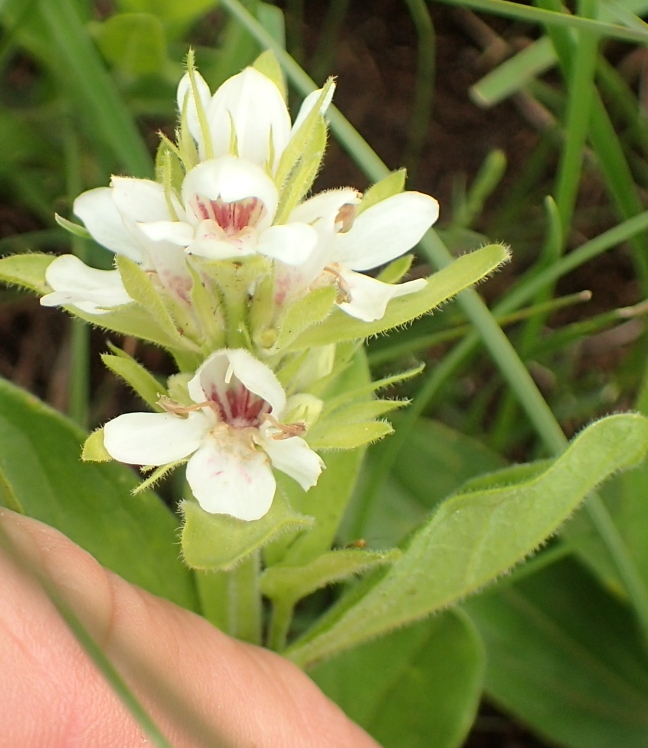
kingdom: Plantae
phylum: Tracheophyta
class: Magnoliopsida
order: Lamiales
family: Acanthaceae
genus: Justicia
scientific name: Justicia andromeda
